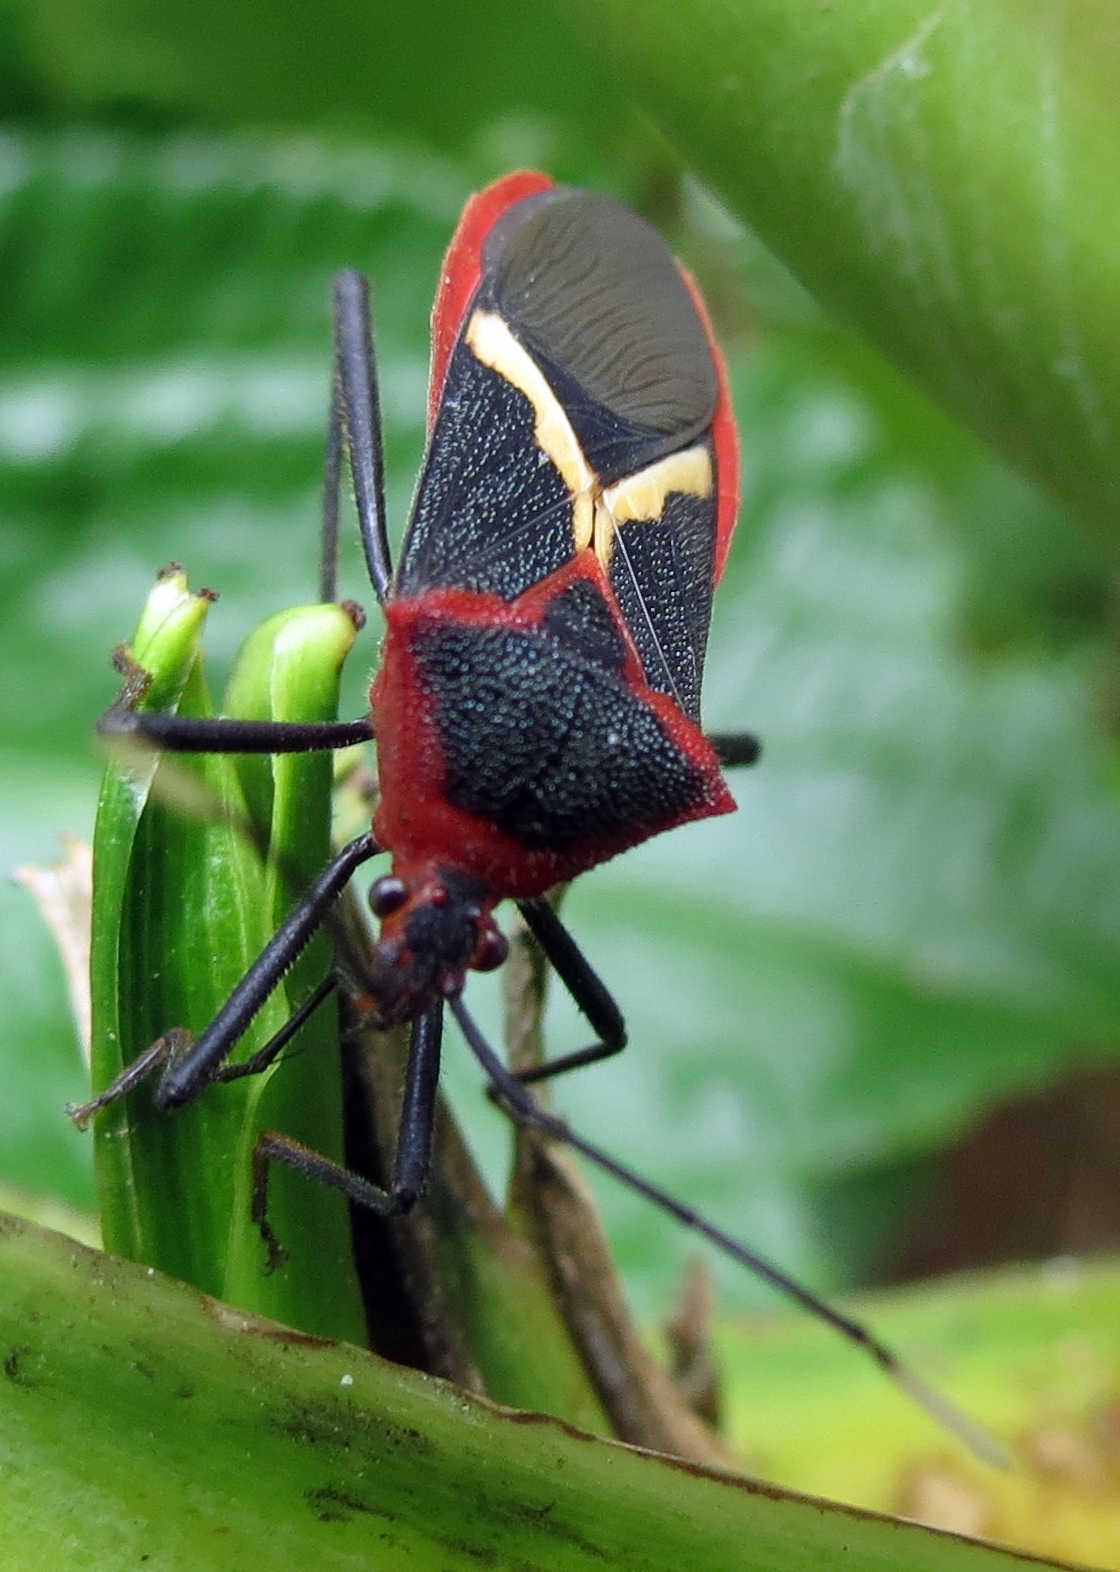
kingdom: Animalia
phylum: Arthropoda
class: Insecta
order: Hemiptera
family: Coreidae
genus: Leptoscelis
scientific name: Leptoscelis tricolor
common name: Heliconia bug
